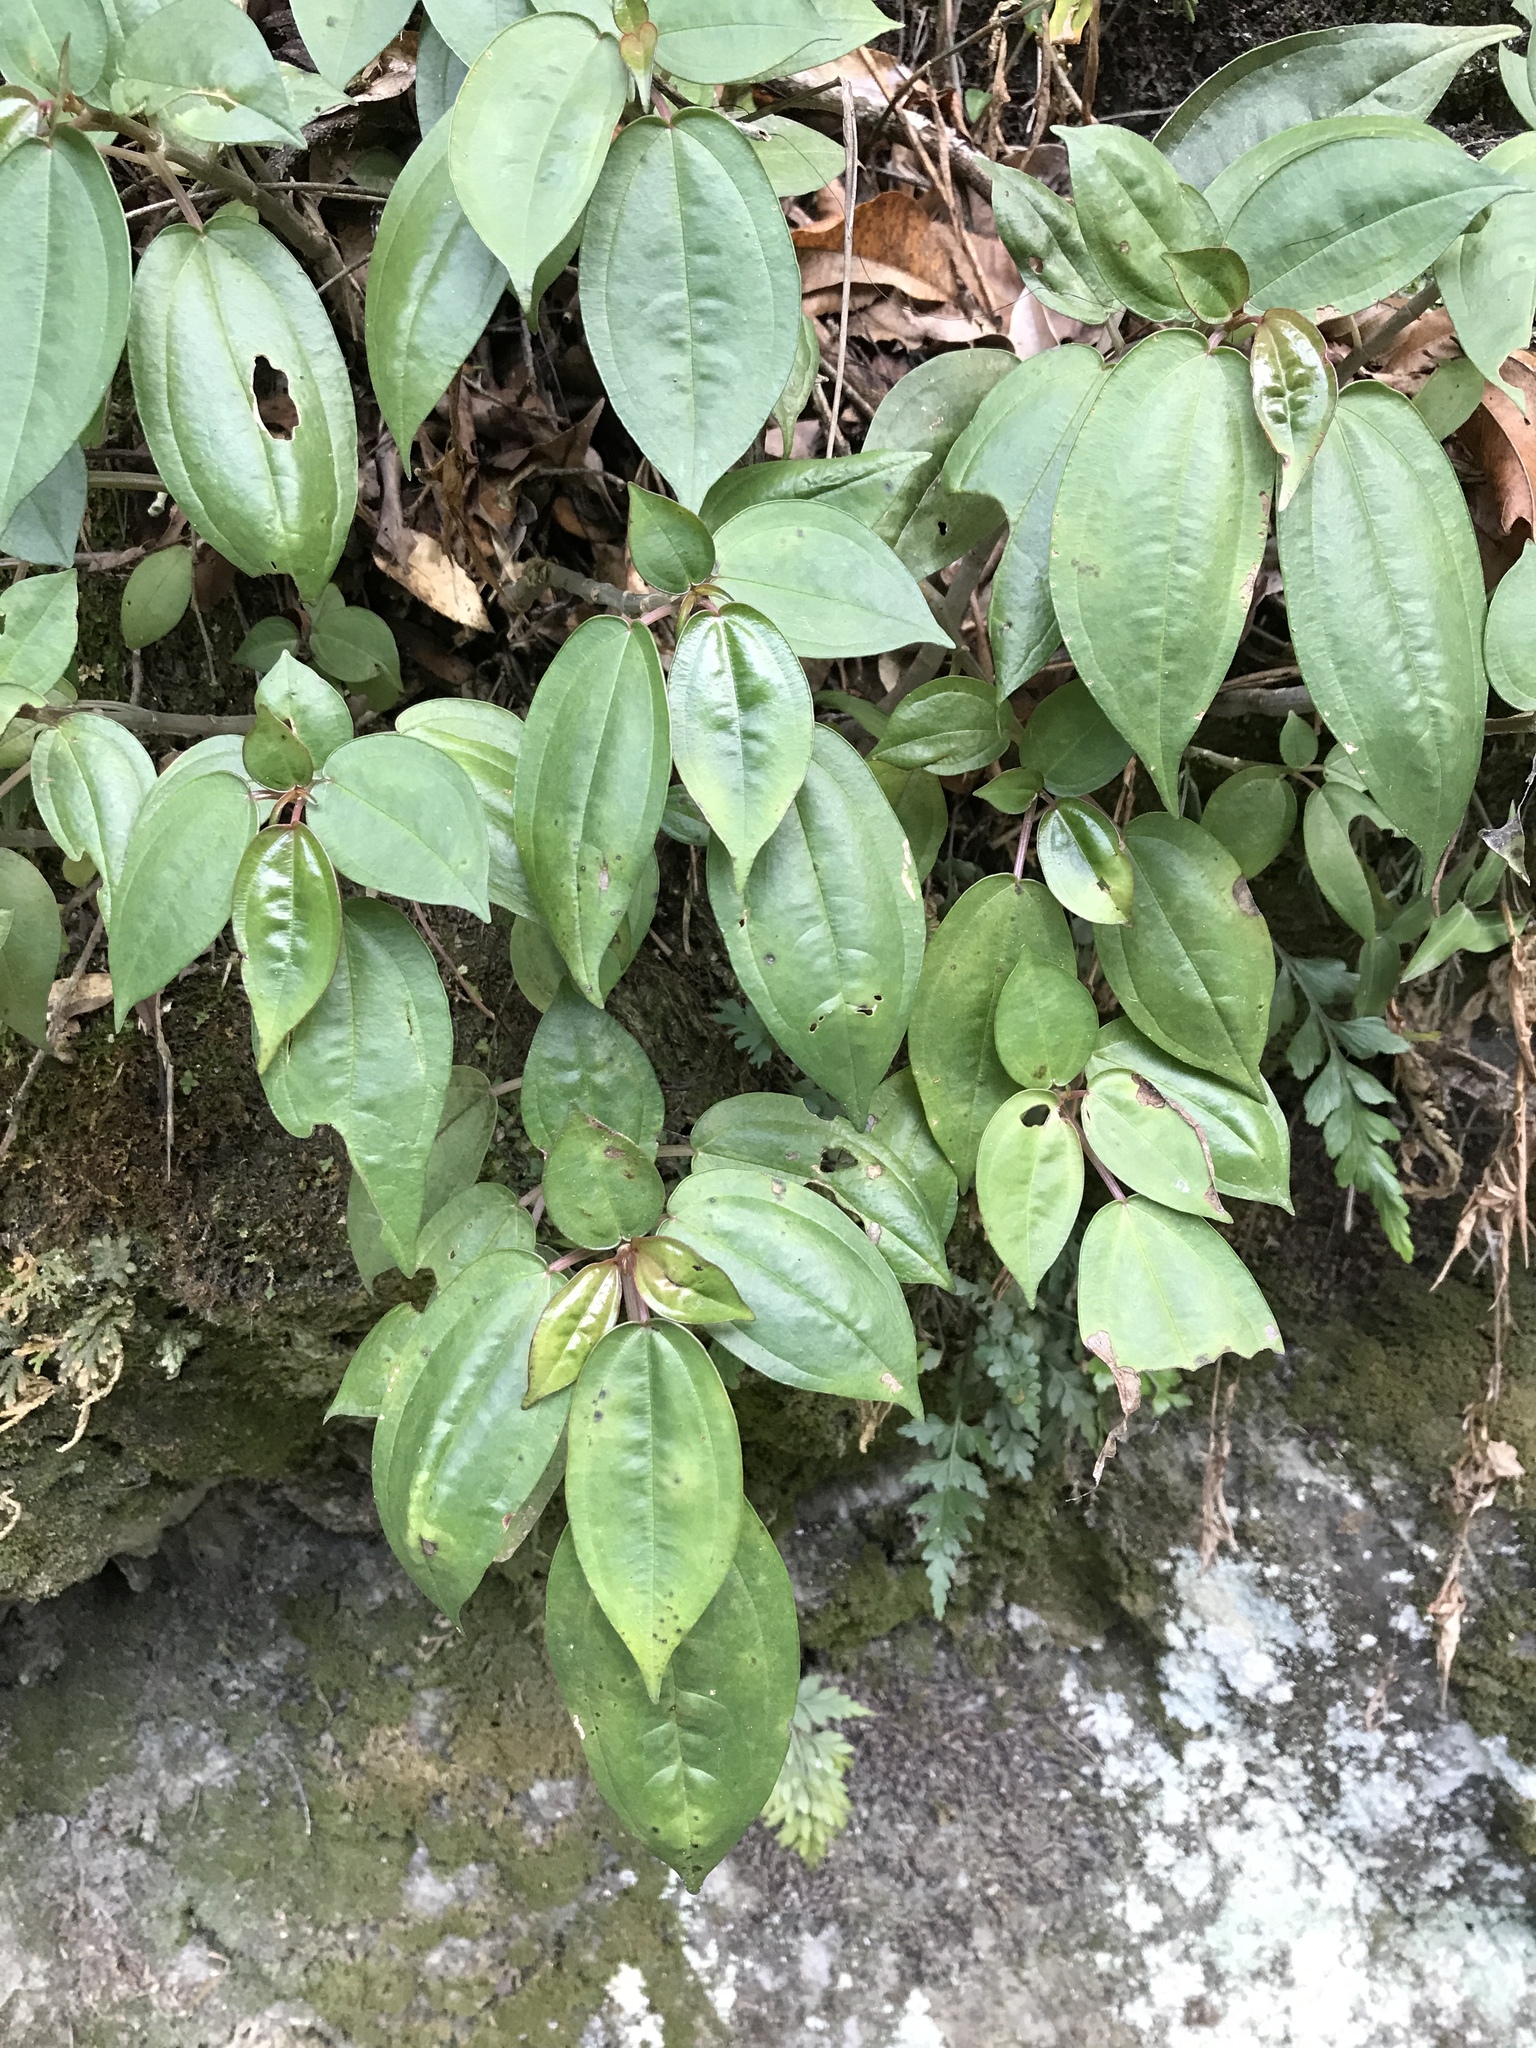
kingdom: Plantae
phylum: Tracheophyta
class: Magnoliopsida
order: Rosales
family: Urticaceae
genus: Pilea
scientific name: Pilea plataniflora
